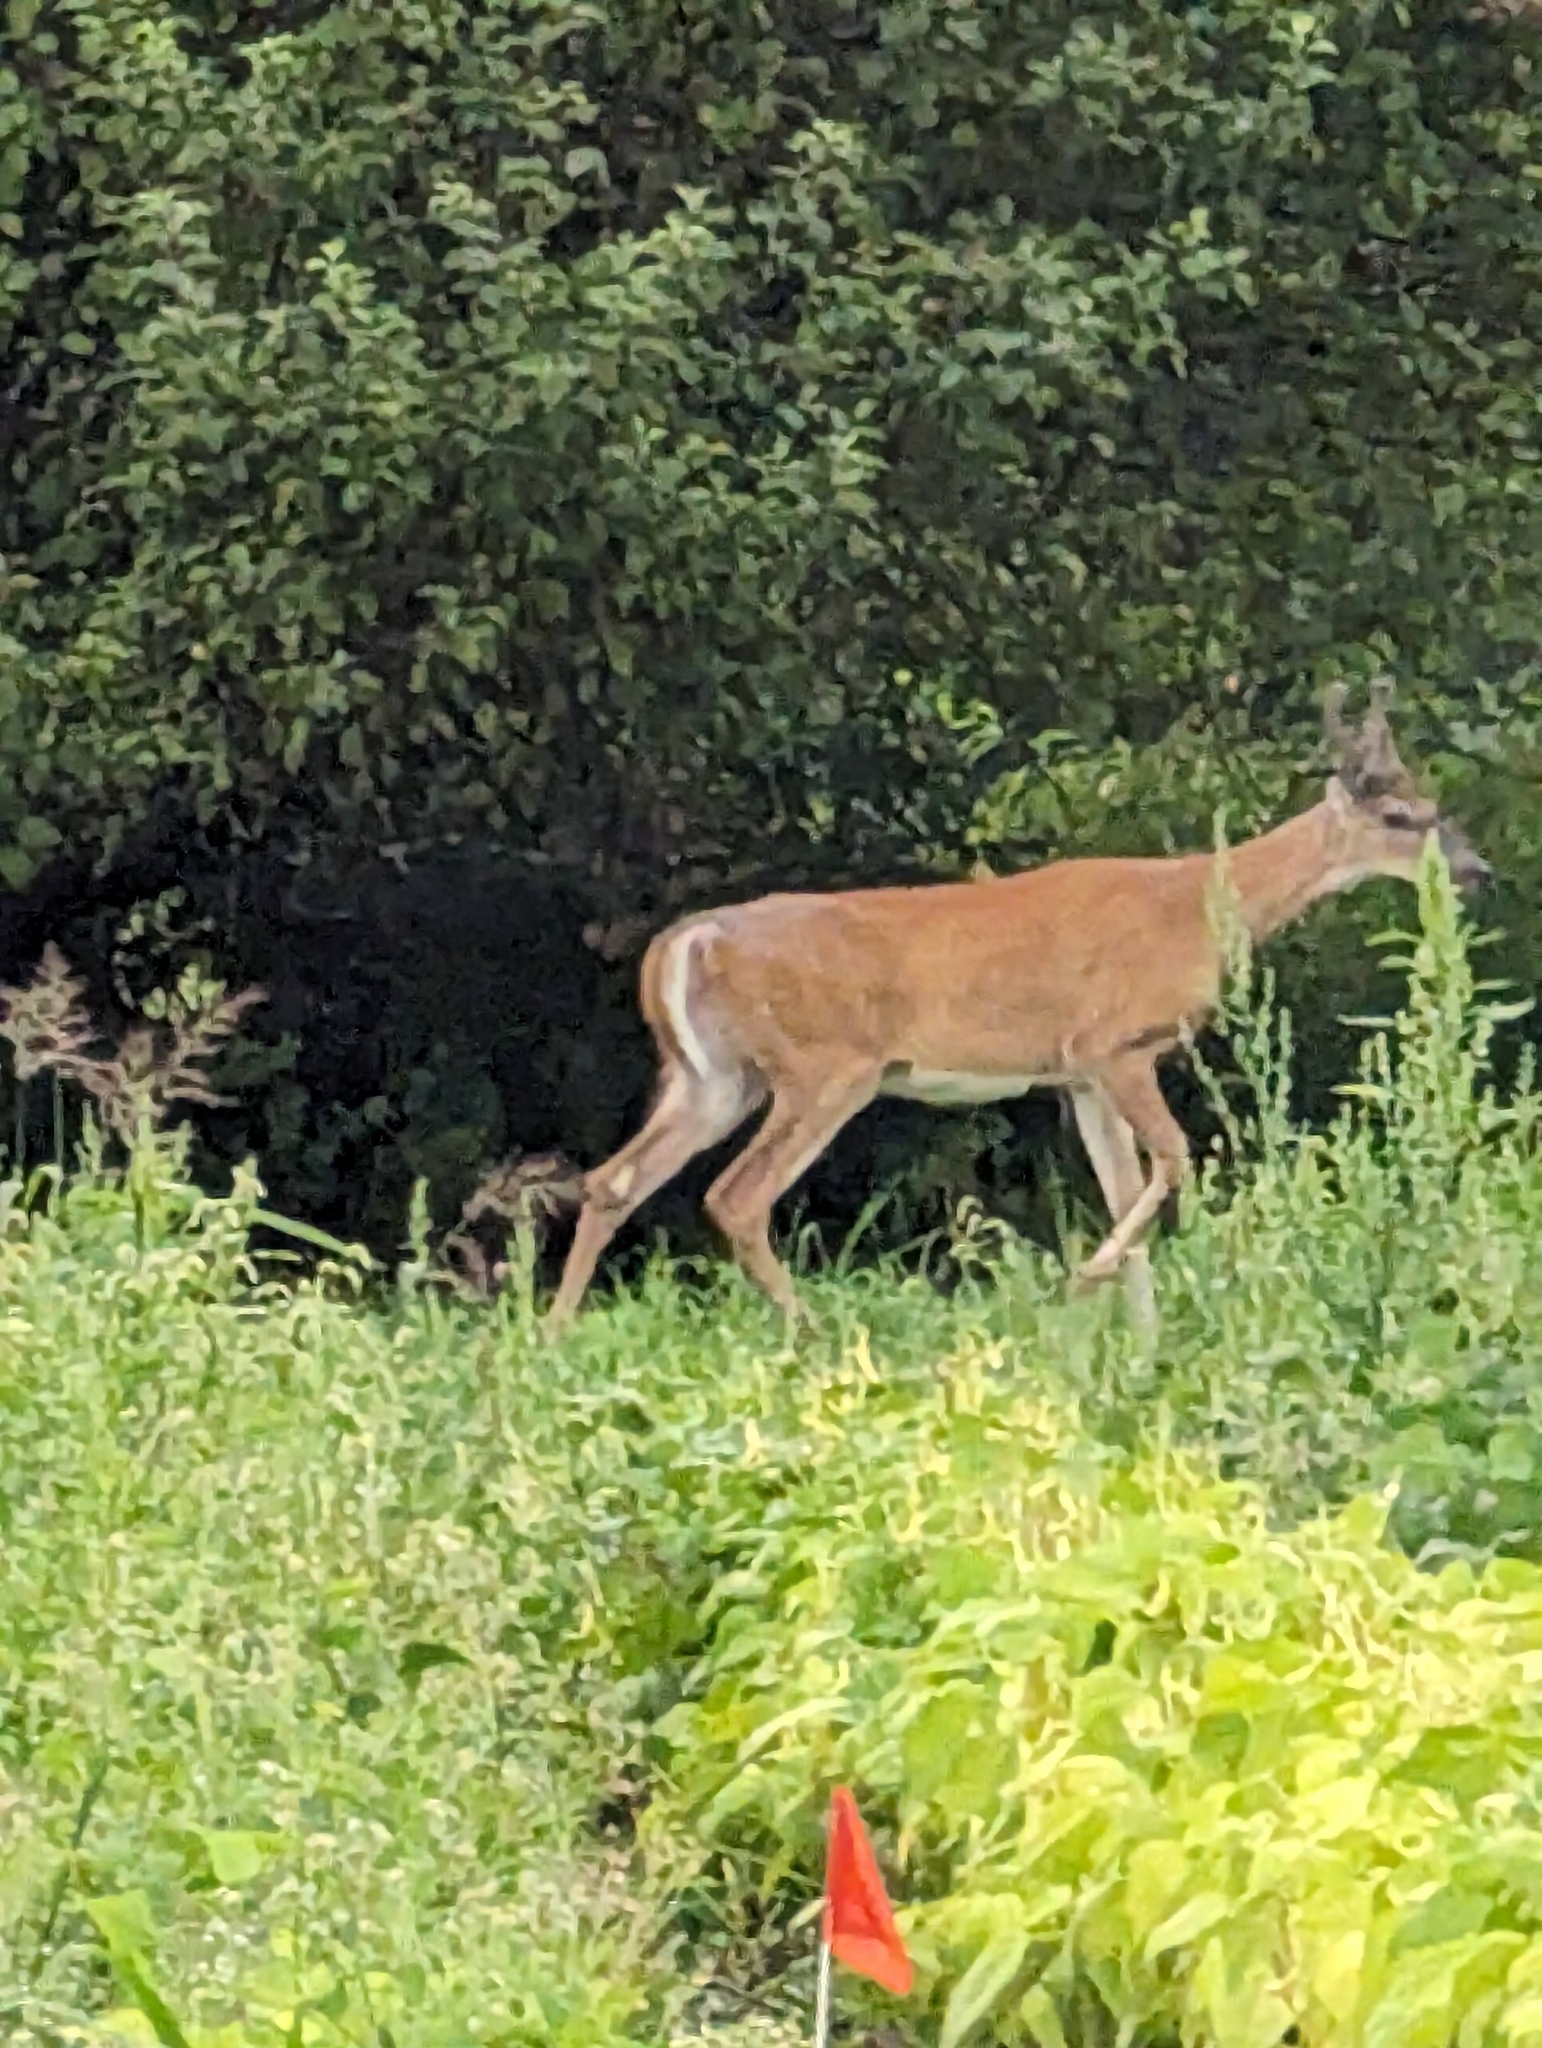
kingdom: Animalia
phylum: Chordata
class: Mammalia
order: Artiodactyla
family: Cervidae
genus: Odocoileus
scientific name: Odocoileus virginianus
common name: White-tailed deer
